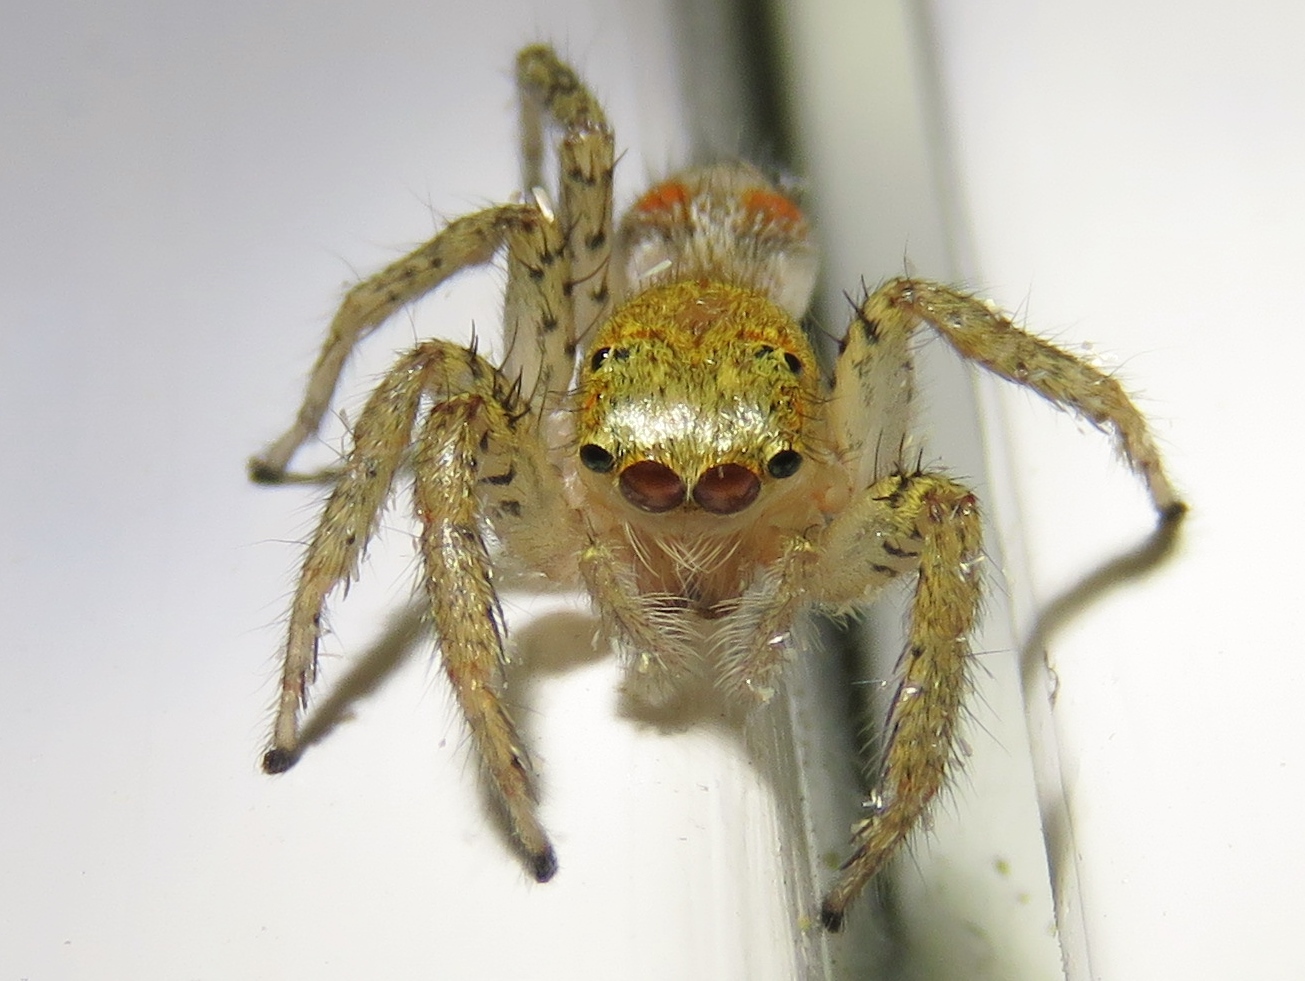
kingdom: Animalia
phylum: Arthropoda
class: Arachnida
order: Araneae
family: Salticidae
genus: Maevia
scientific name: Maevia inclemens
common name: Dimorphic jumper
